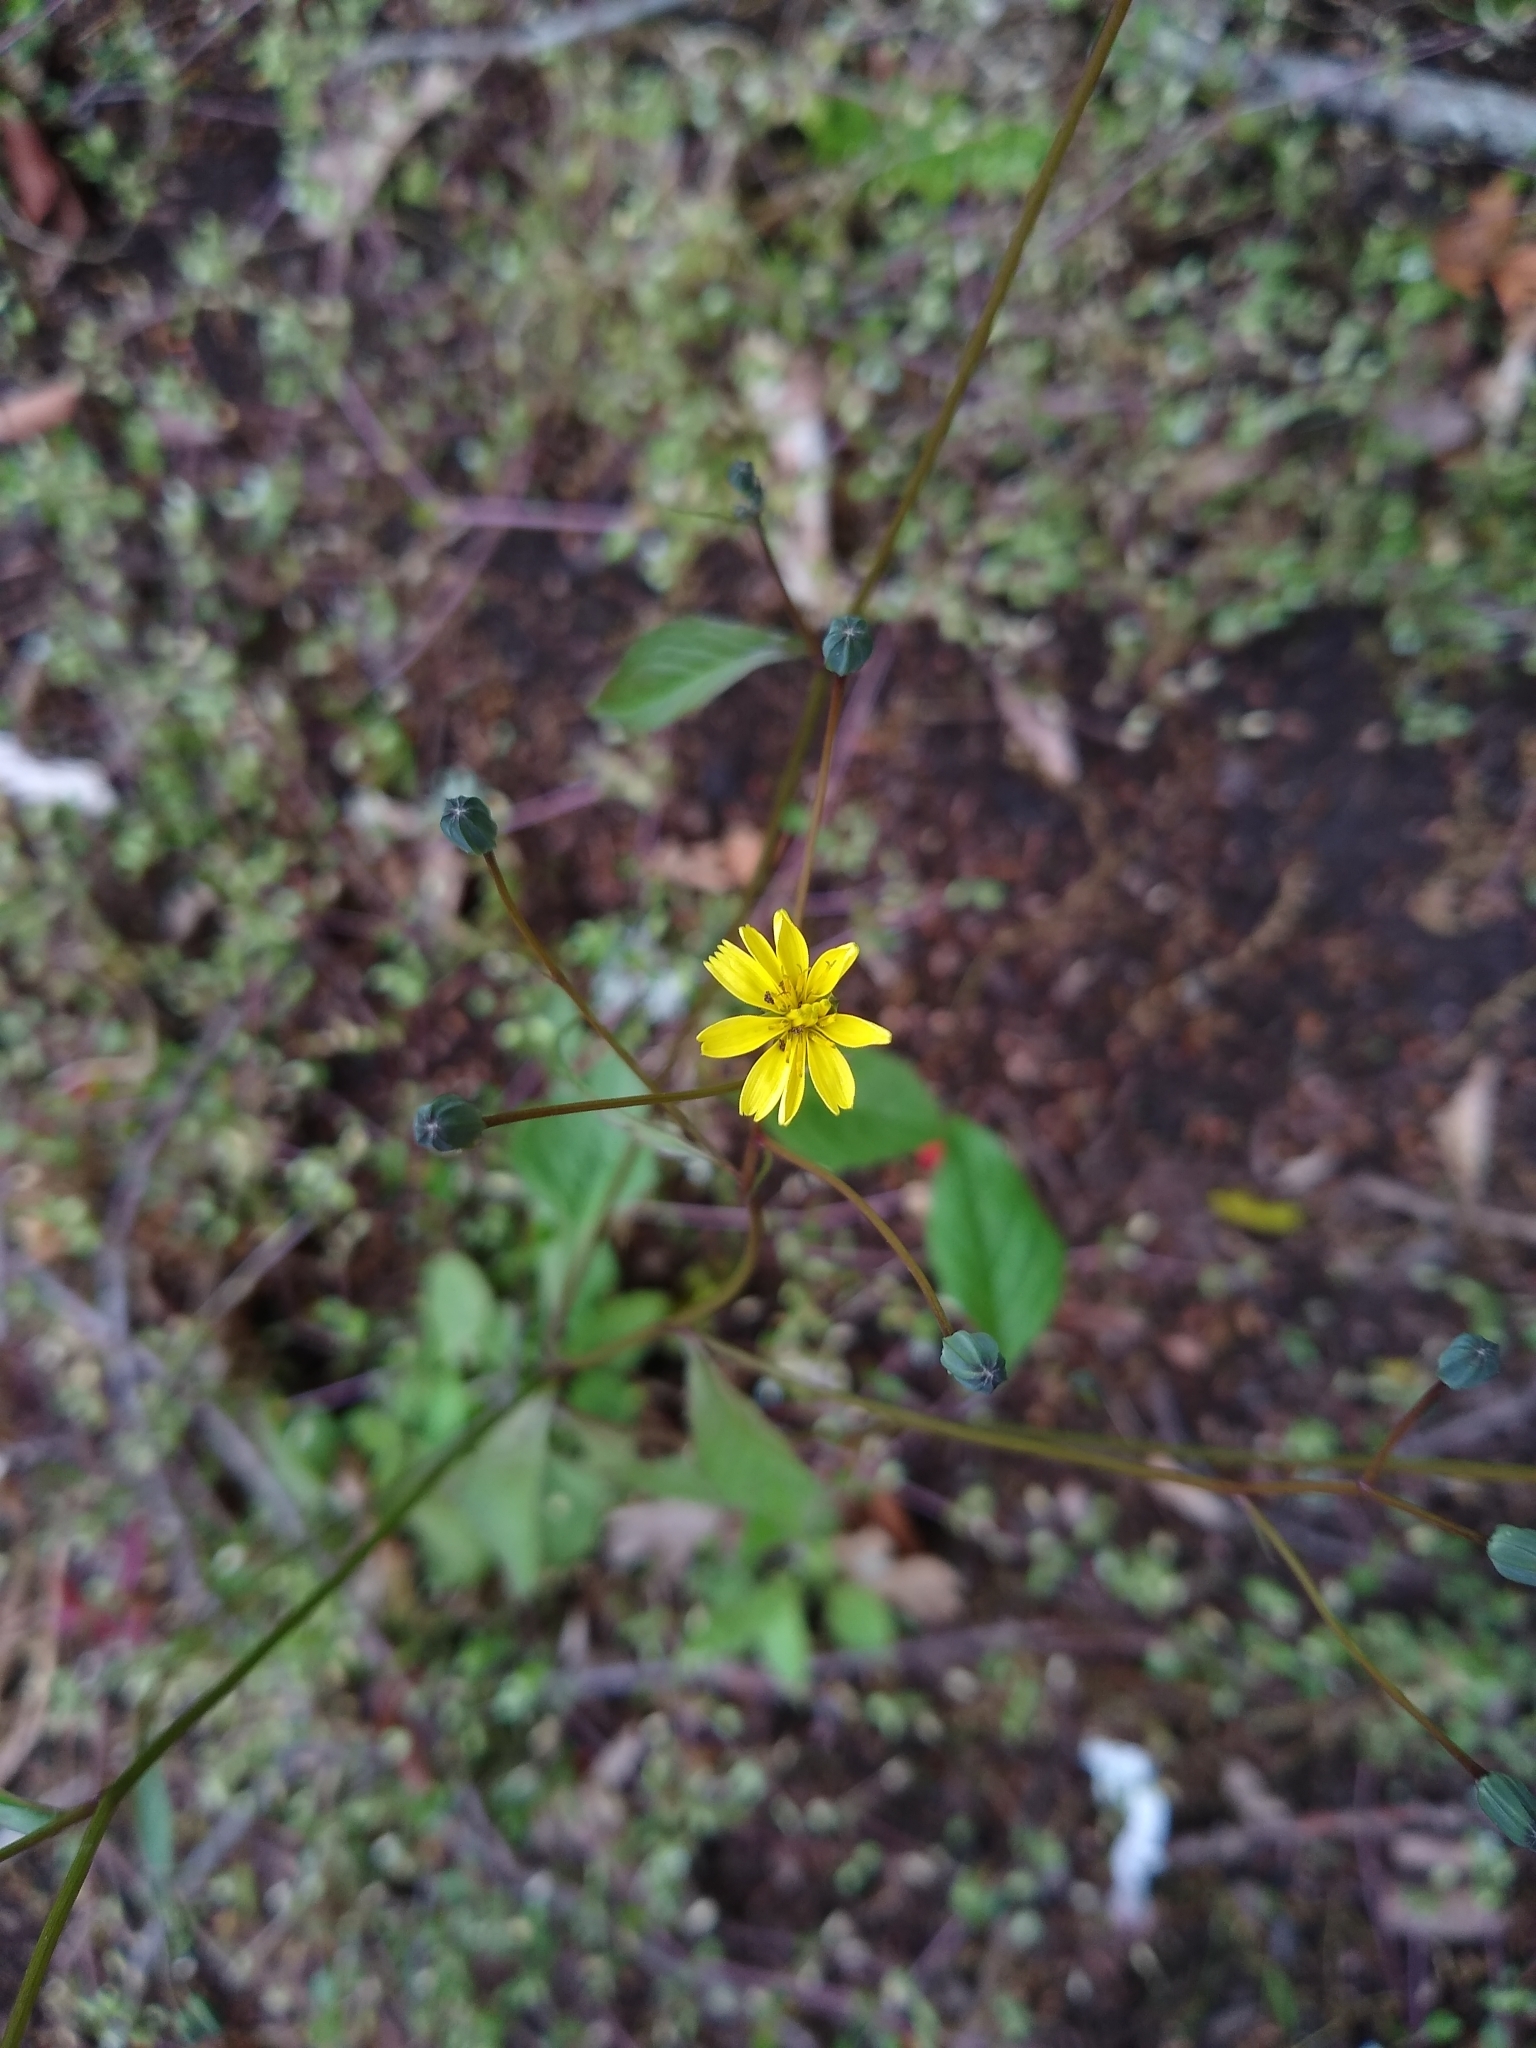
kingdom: Plantae
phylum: Tracheophyta
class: Magnoliopsida
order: Asterales
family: Asteraceae
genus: Lapsana
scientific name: Lapsana communis
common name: Nipplewort
